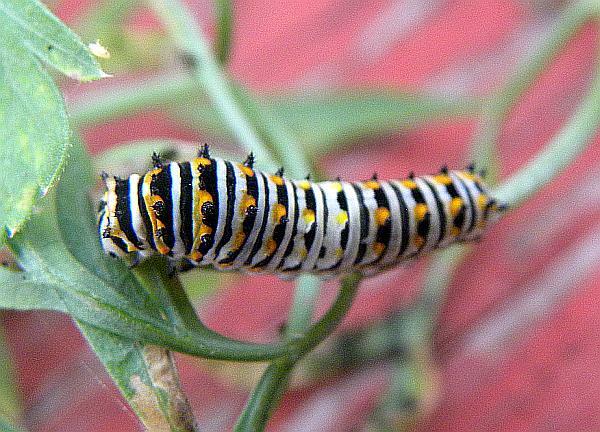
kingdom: Animalia
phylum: Arthropoda
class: Insecta
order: Lepidoptera
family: Papilionidae
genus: Papilio
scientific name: Papilio polyxenes
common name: Black swallowtail
